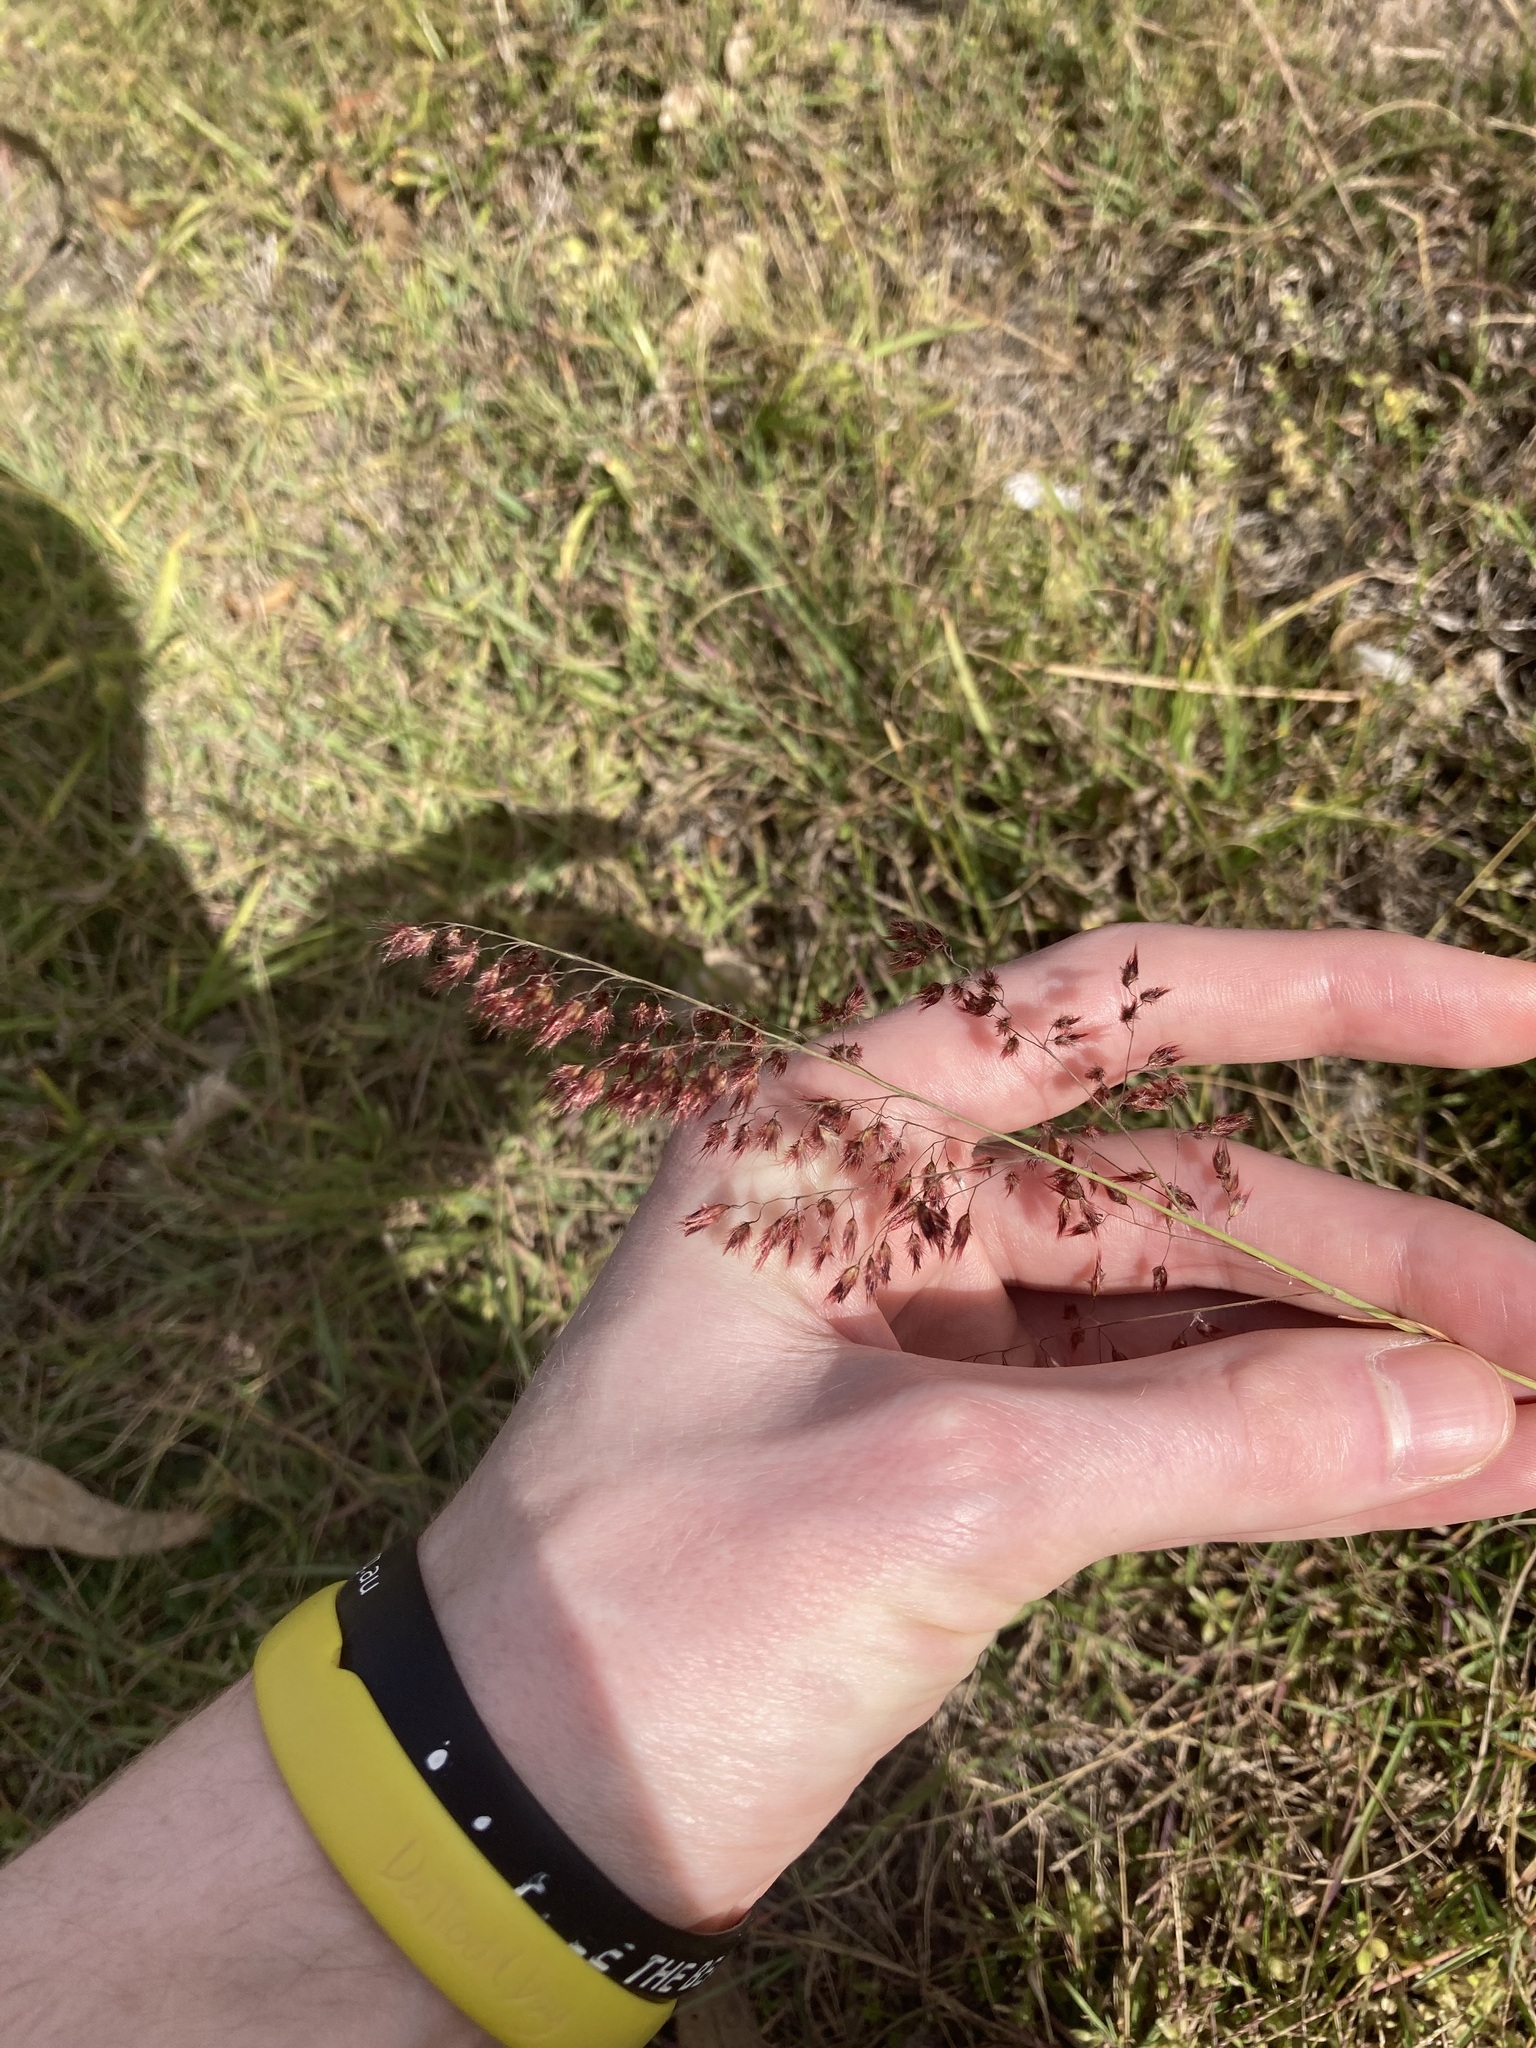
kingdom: Plantae
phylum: Tracheophyta
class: Liliopsida
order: Poales
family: Poaceae
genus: Melinis
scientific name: Melinis repens
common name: Rose natal grass
